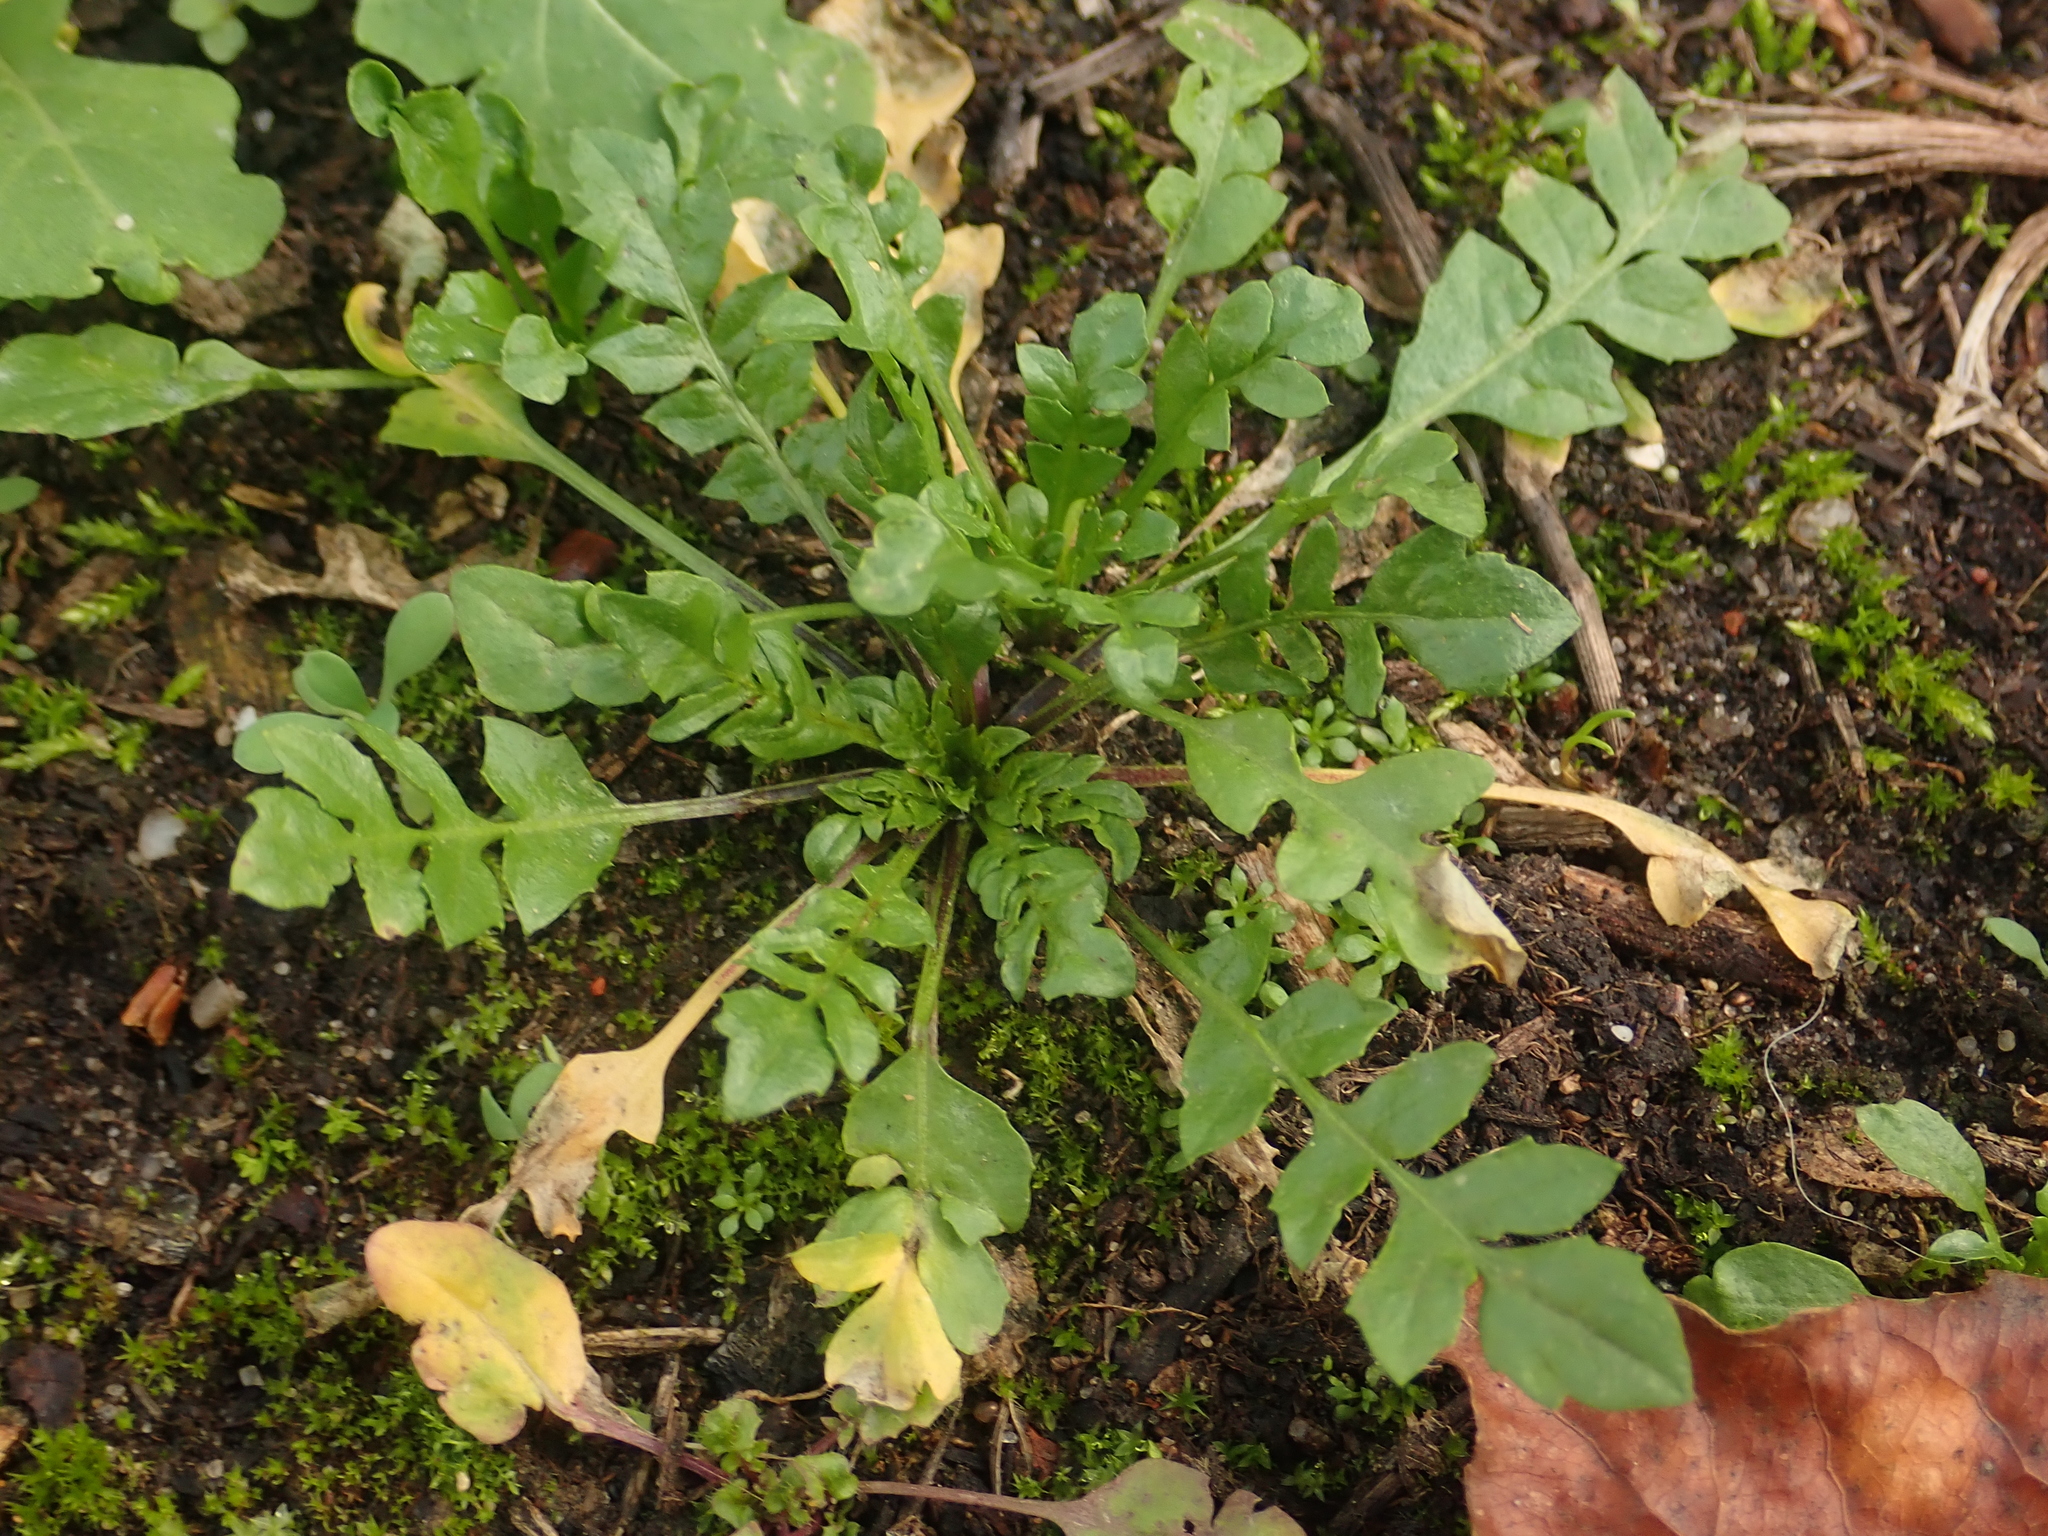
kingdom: Plantae
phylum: Tracheophyta
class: Magnoliopsida
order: Brassicales
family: Brassicaceae
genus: Capsella
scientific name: Capsella bursa-pastoris
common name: Shepherd's purse
